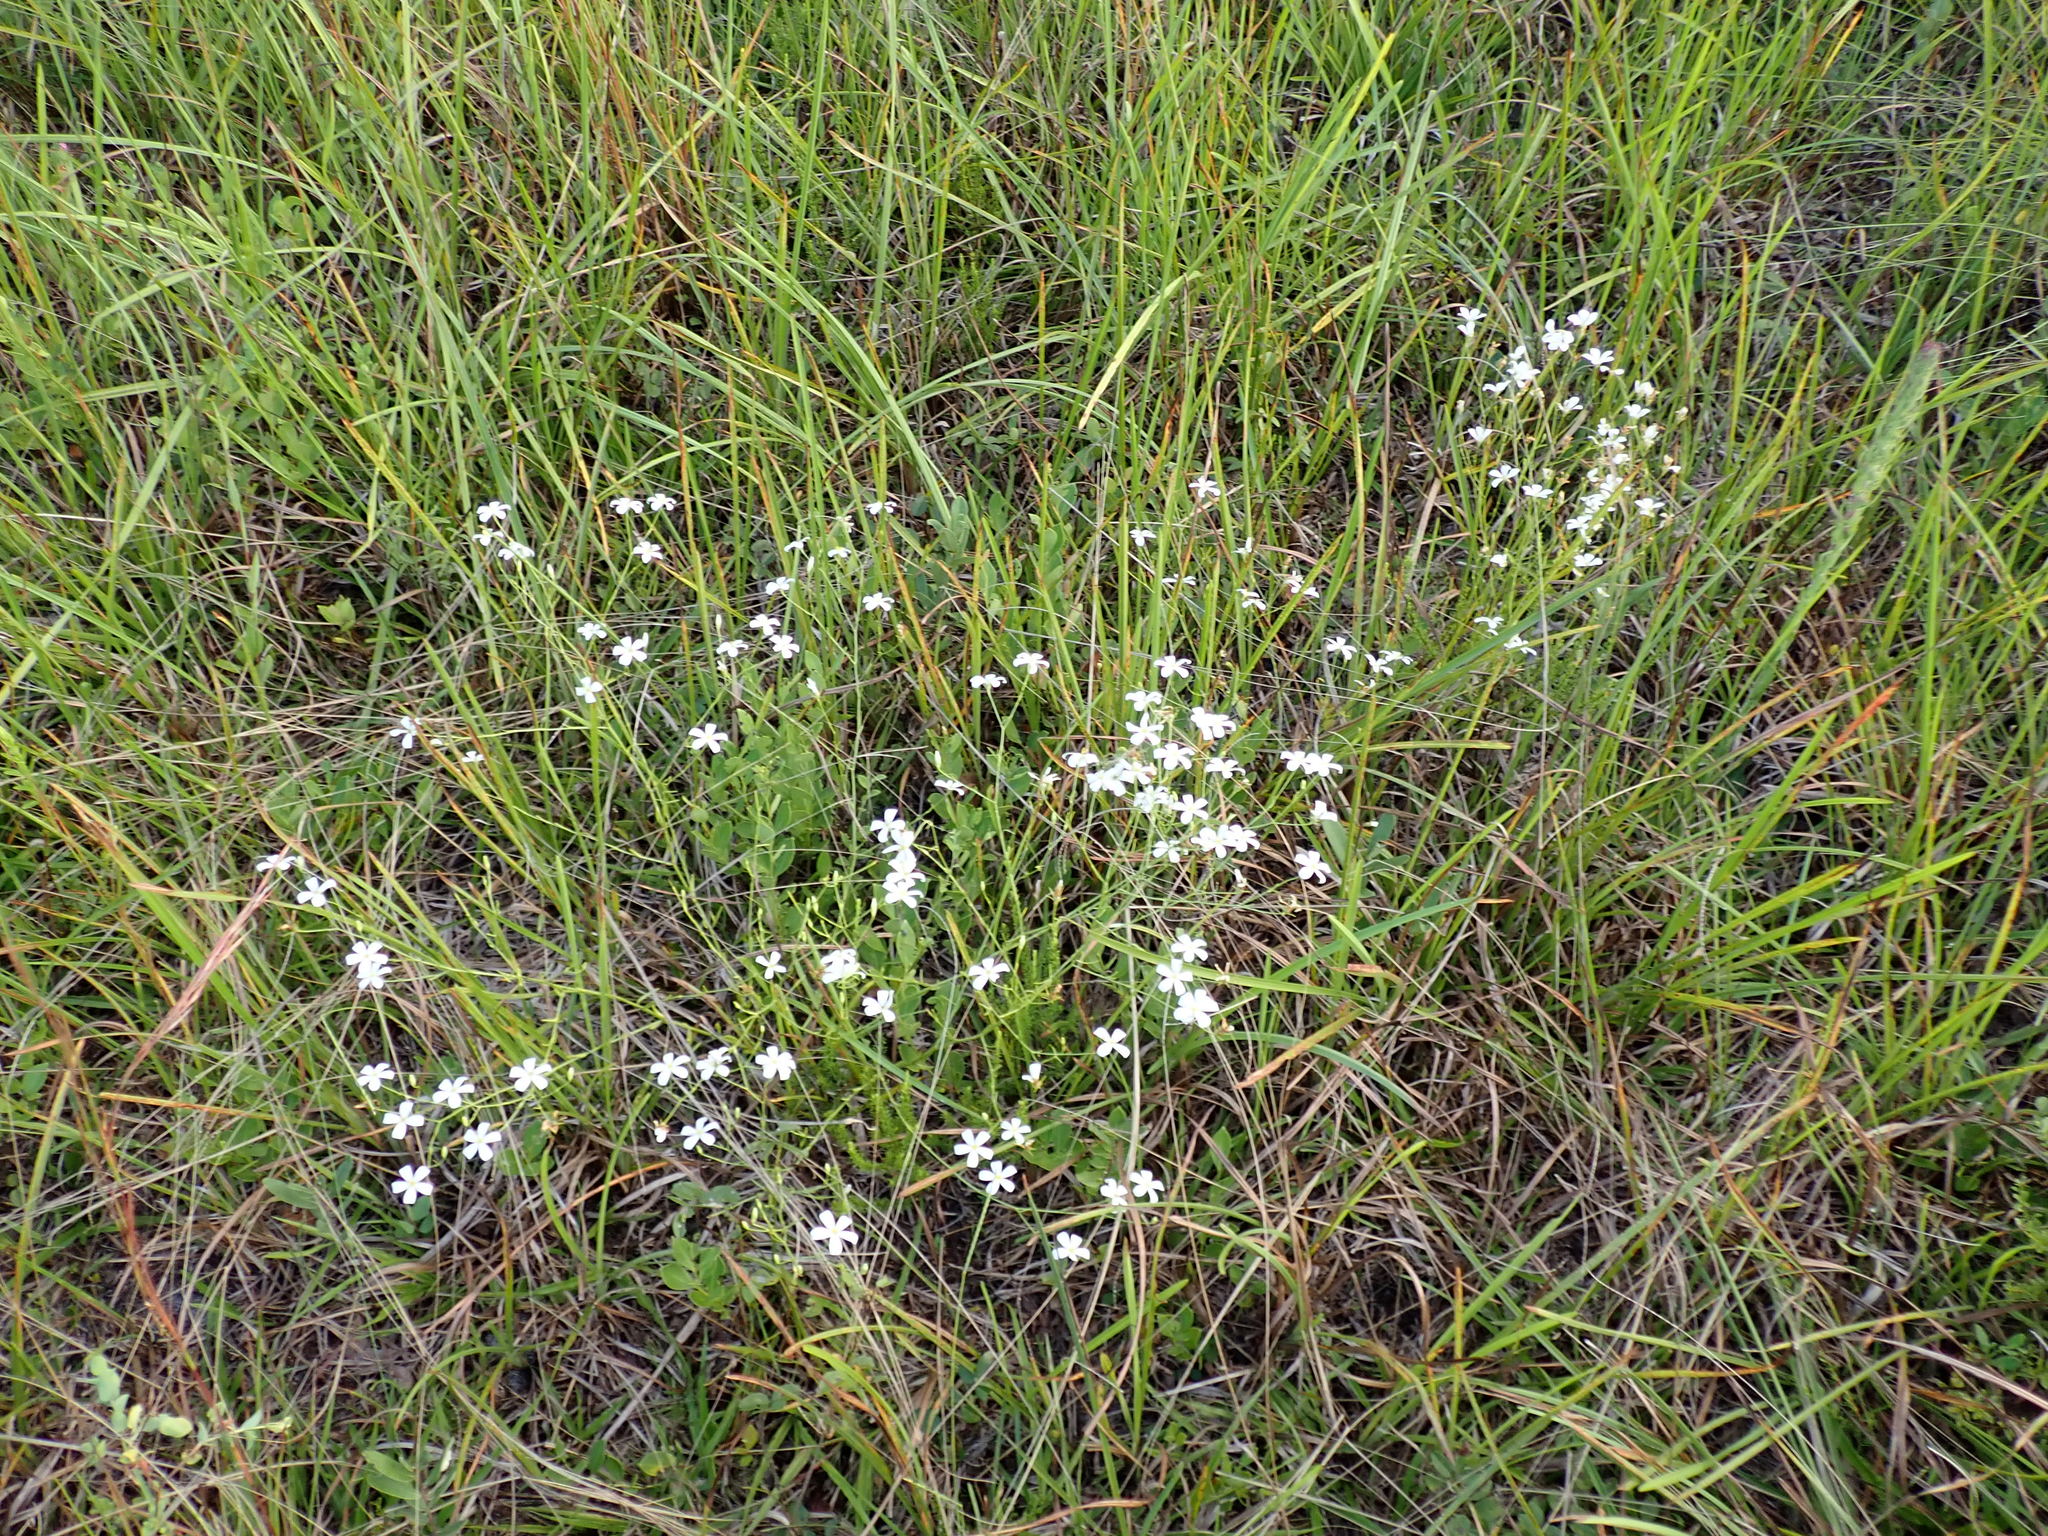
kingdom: Plantae
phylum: Tracheophyta
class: Magnoliopsida
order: Gentianales
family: Gentianaceae
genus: Sabatia
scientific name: Sabatia brevifolia
